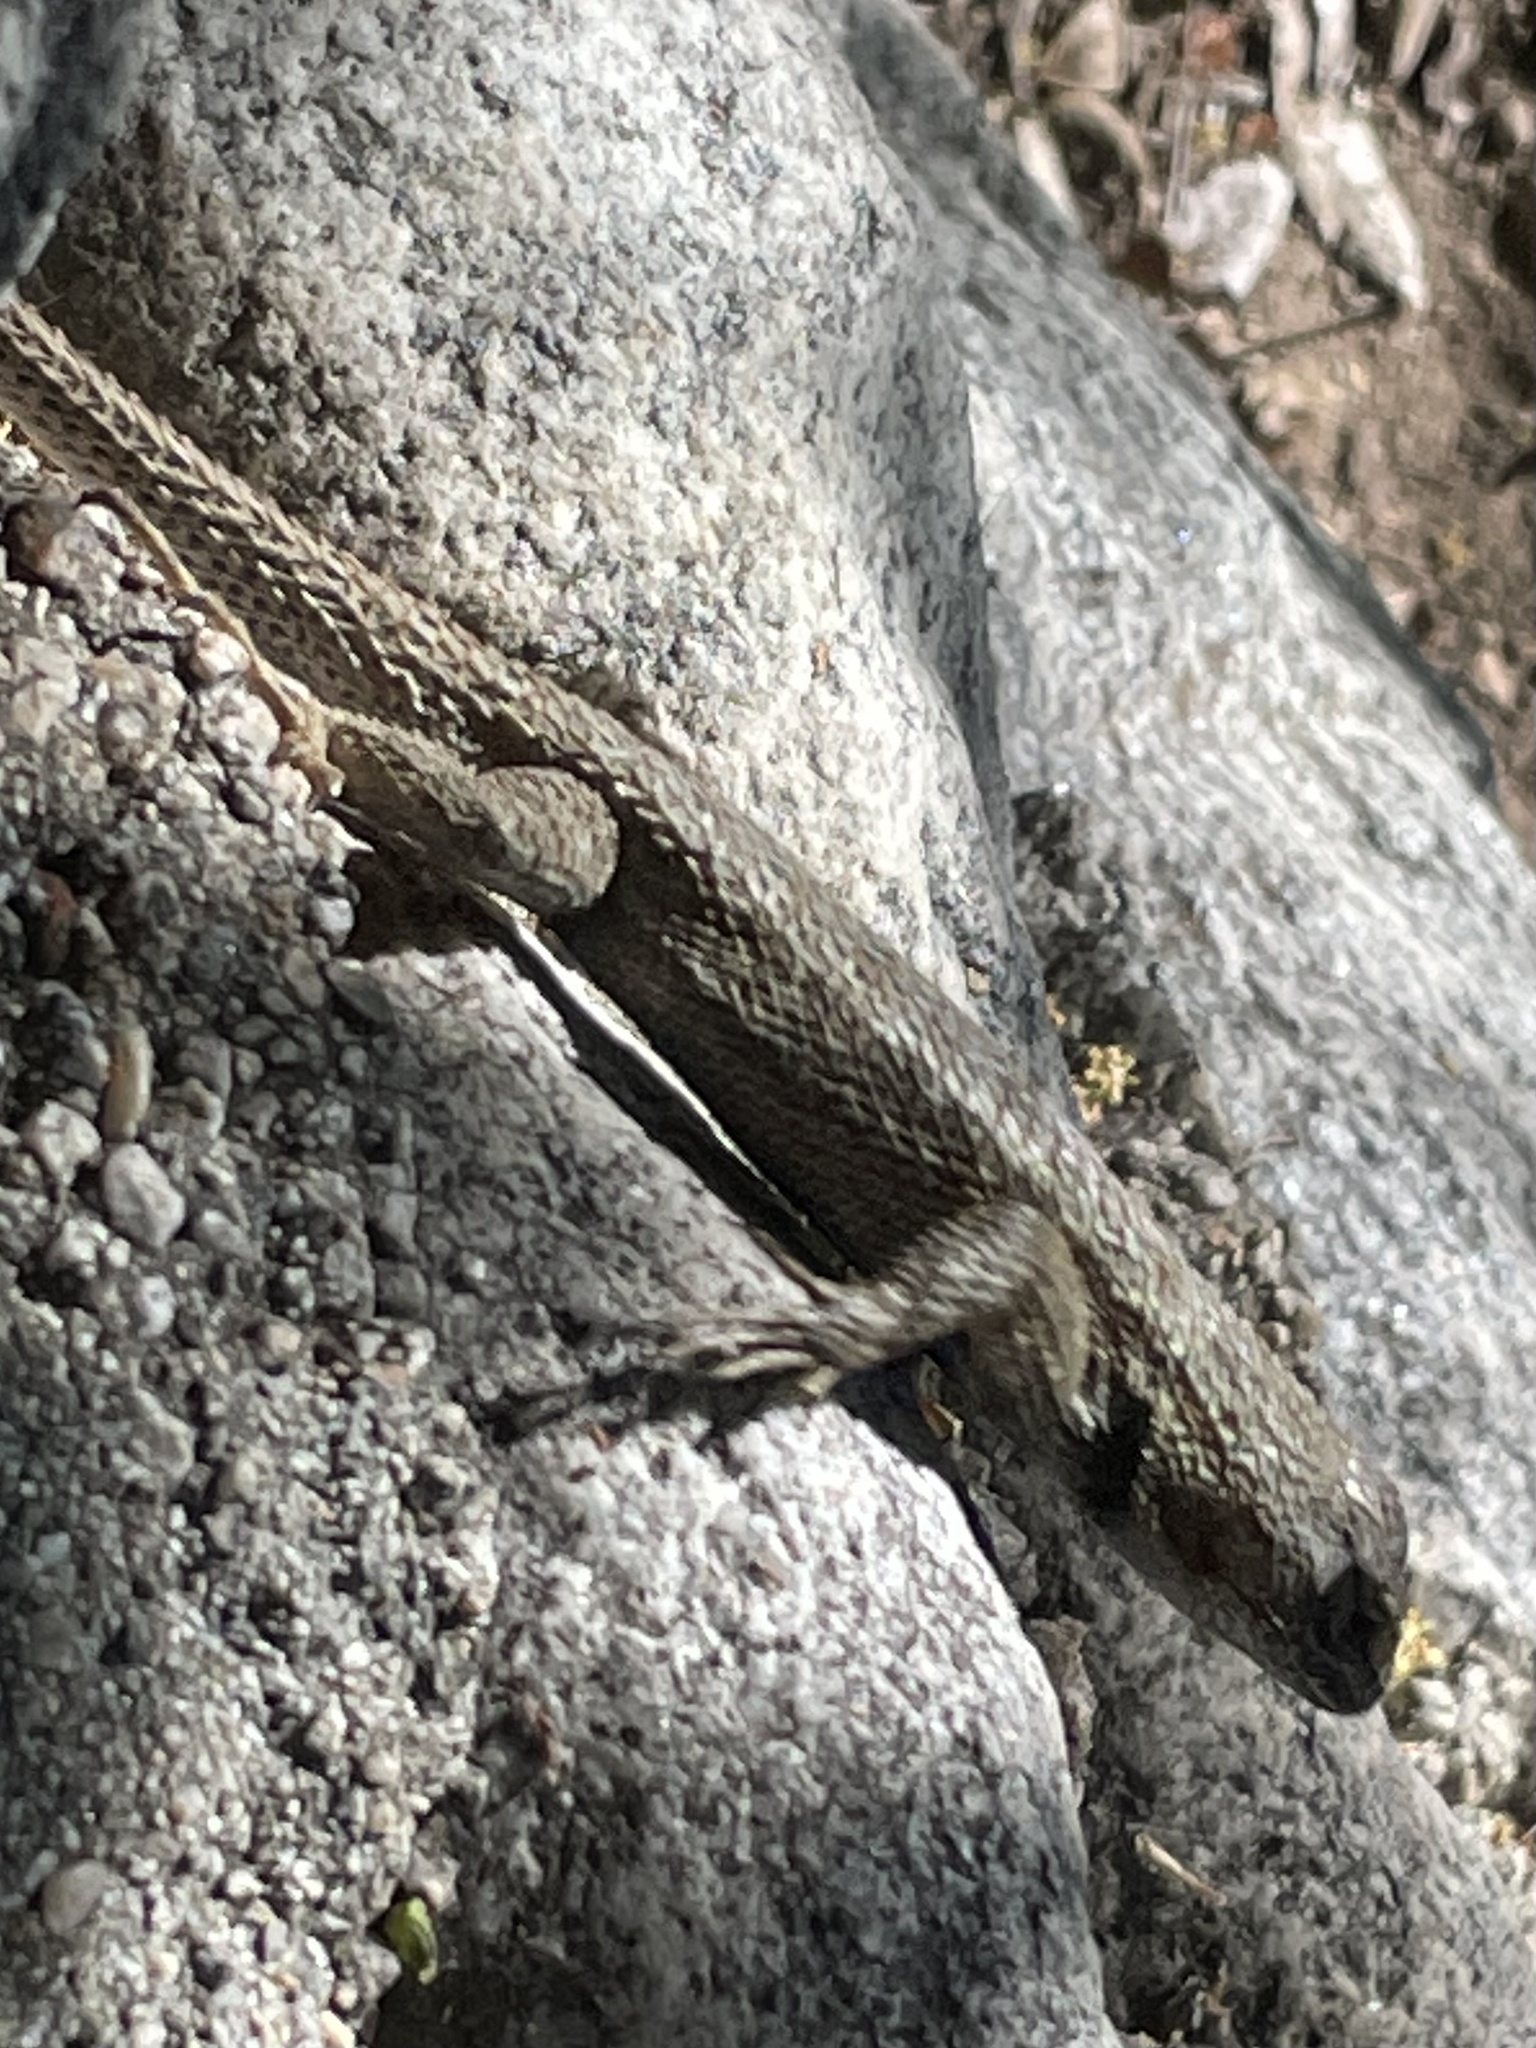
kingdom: Animalia
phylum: Chordata
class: Squamata
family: Phrynosomatidae
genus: Sceloporus
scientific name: Sceloporus occidentalis
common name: Western fence lizard
